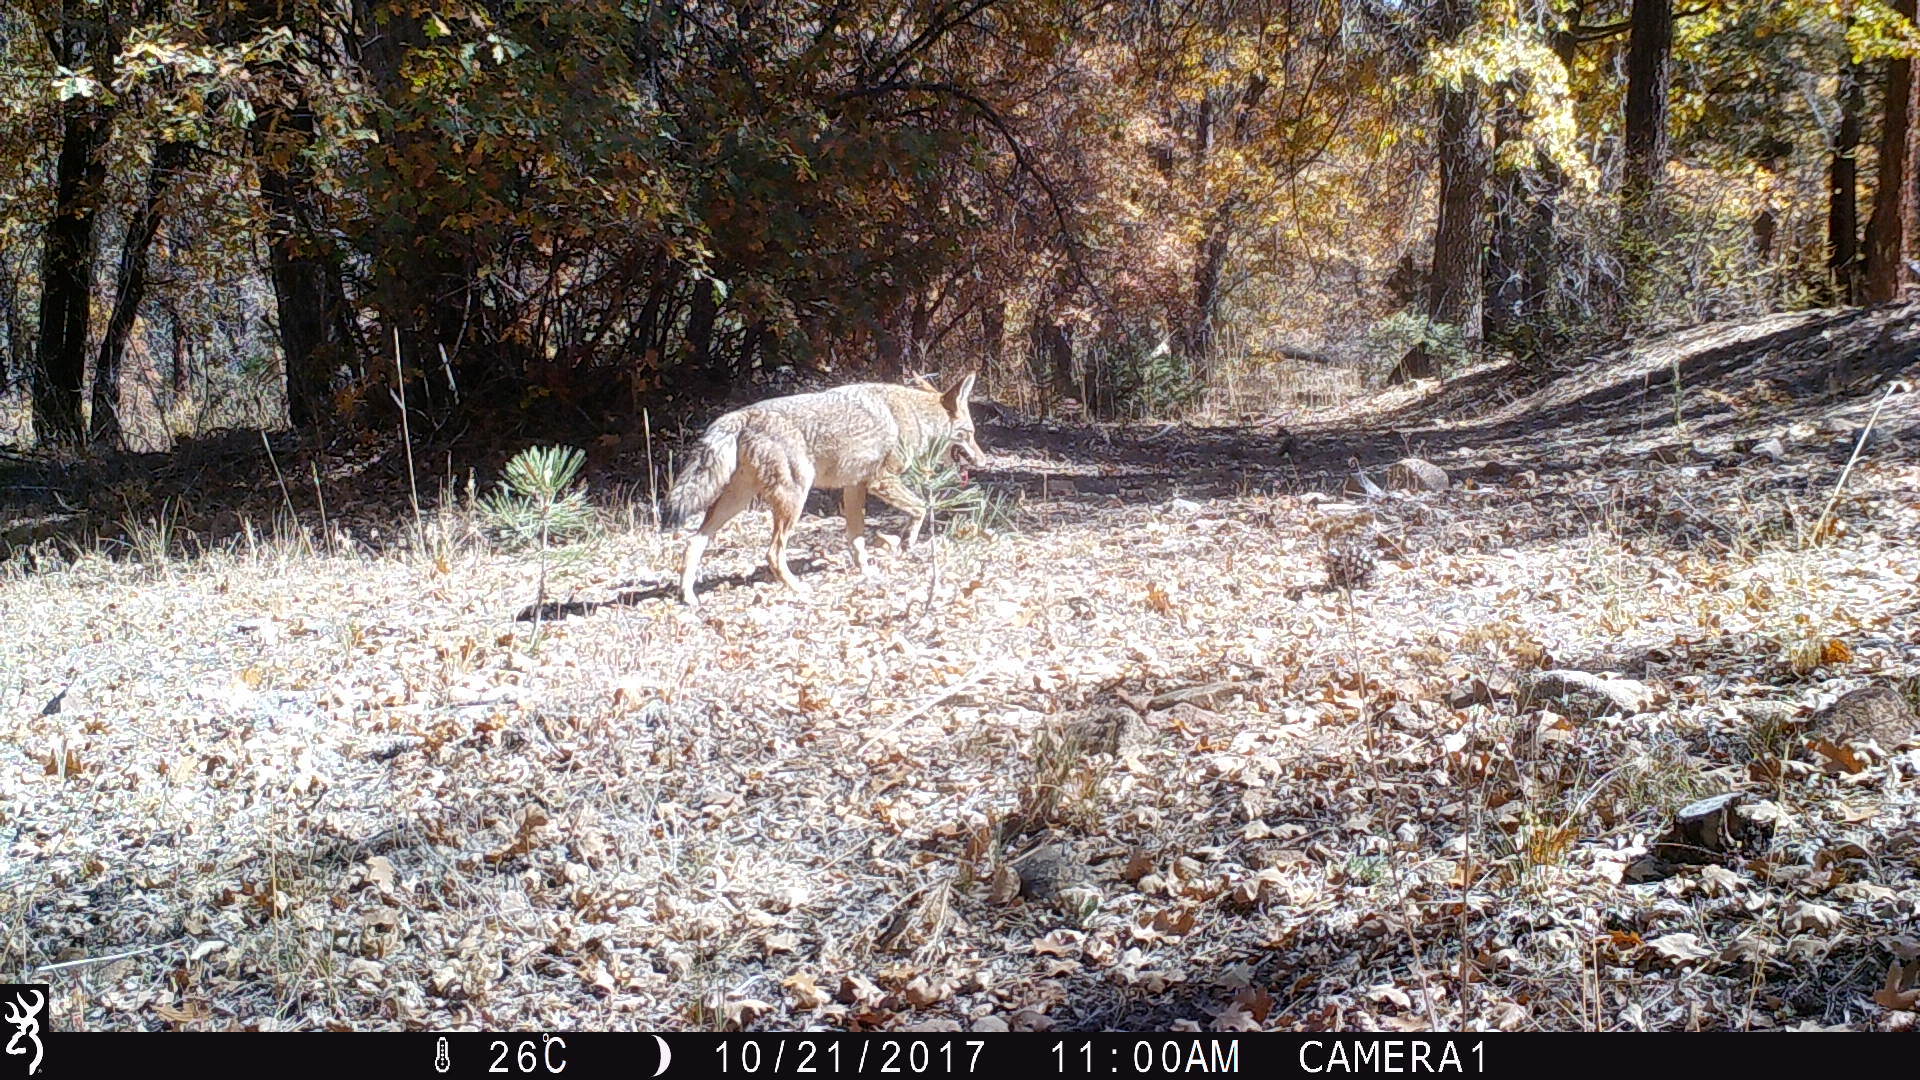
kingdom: Animalia
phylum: Chordata
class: Mammalia
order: Carnivora
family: Canidae
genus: Canis
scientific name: Canis latrans
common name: Coyote
